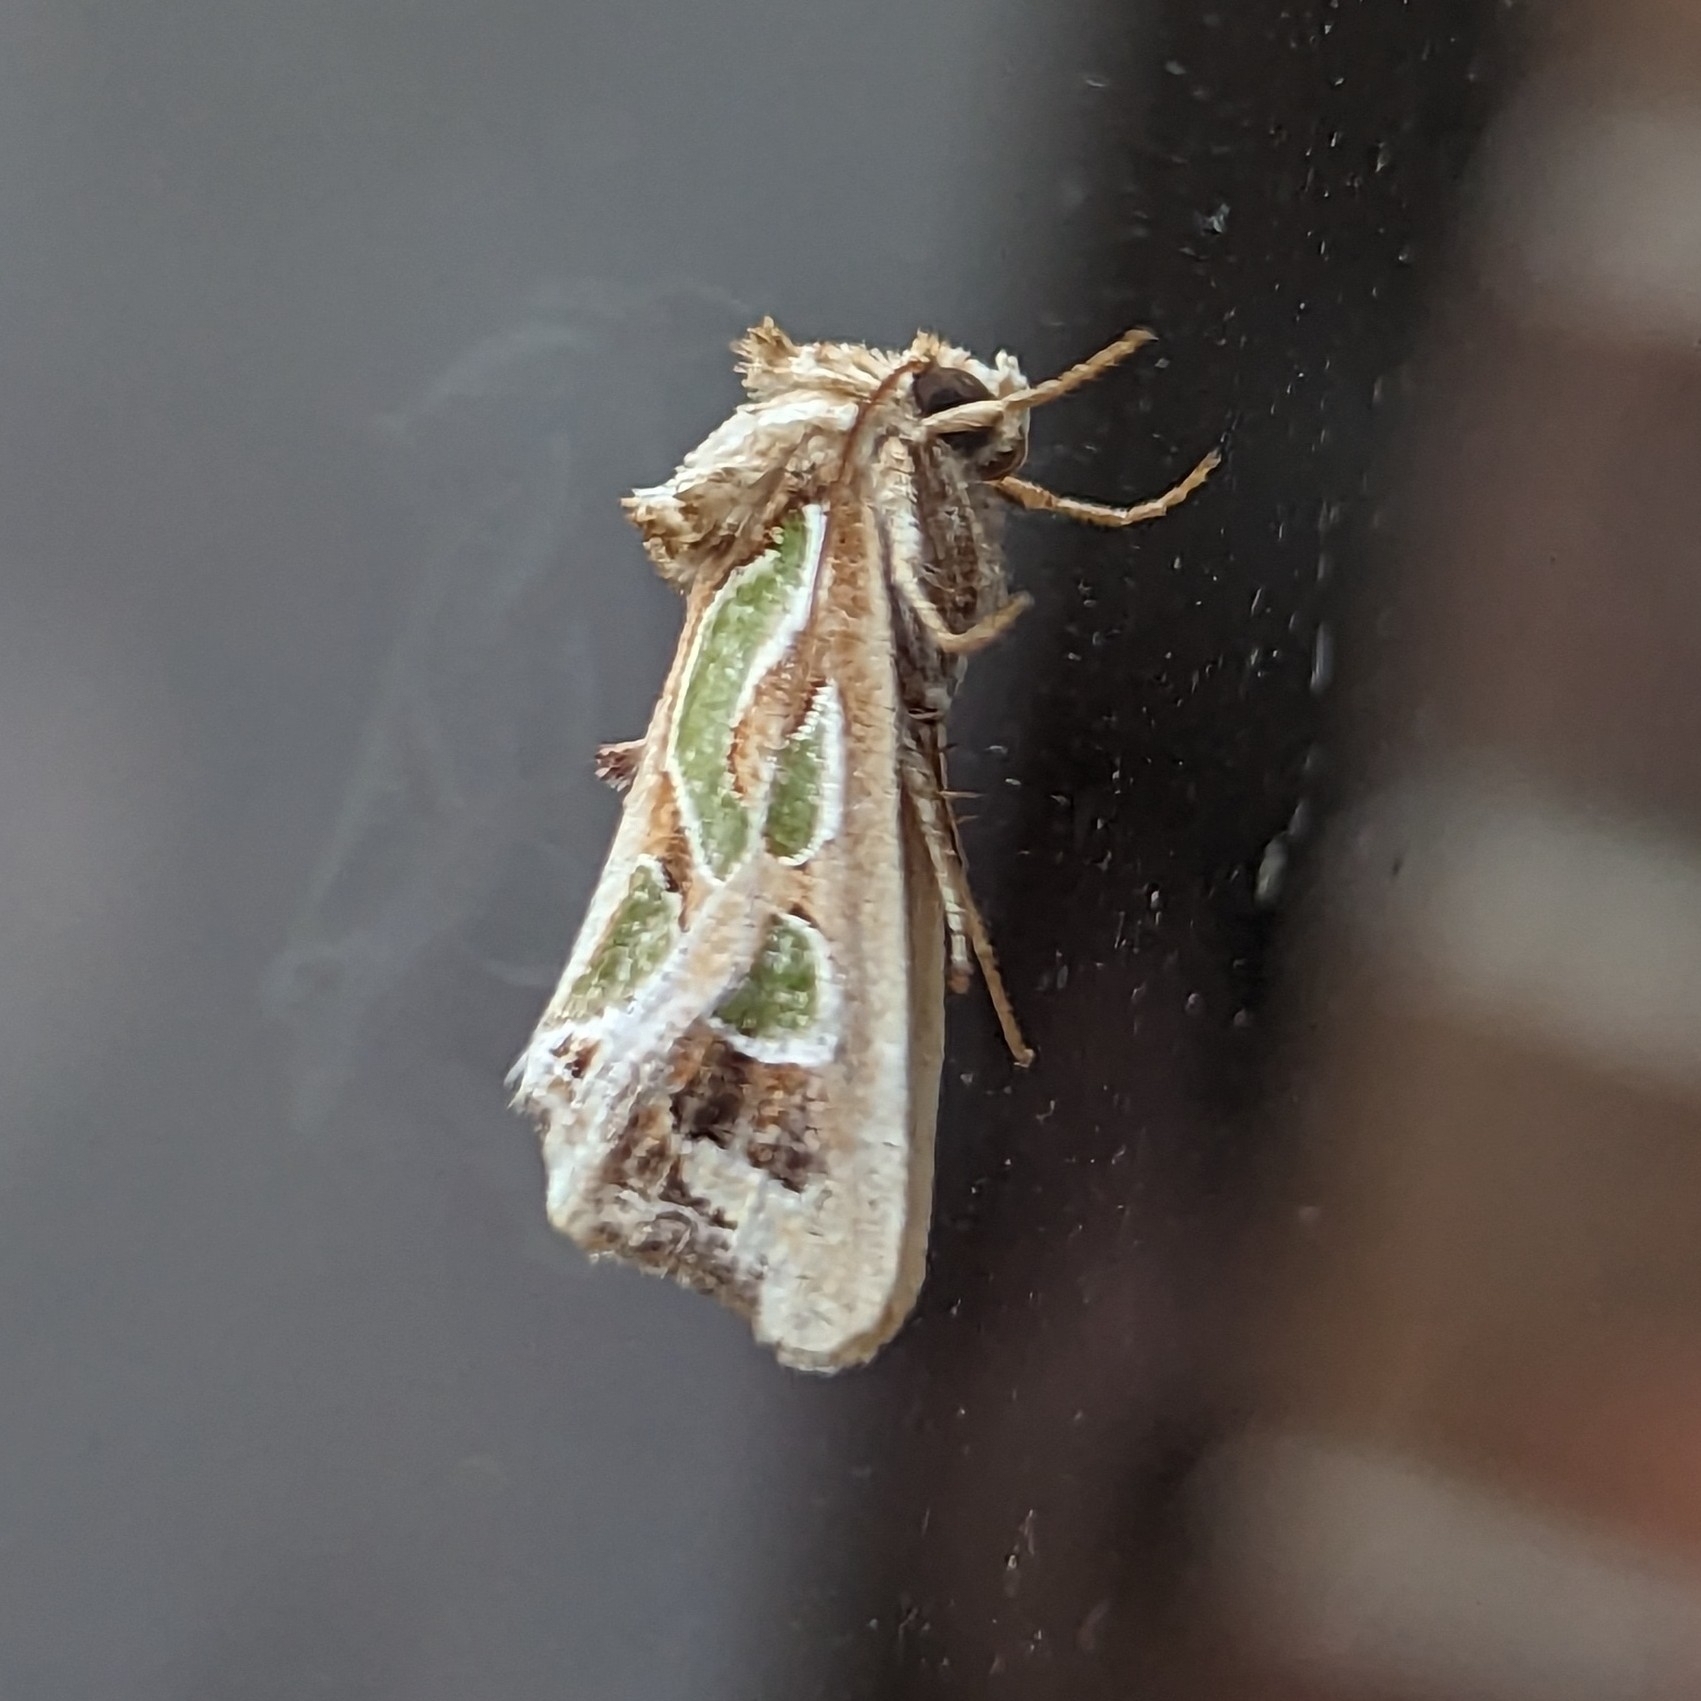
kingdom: Animalia
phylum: Arthropoda
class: Insecta
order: Lepidoptera
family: Noctuidae
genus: Cosmodes
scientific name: Cosmodes elegans
